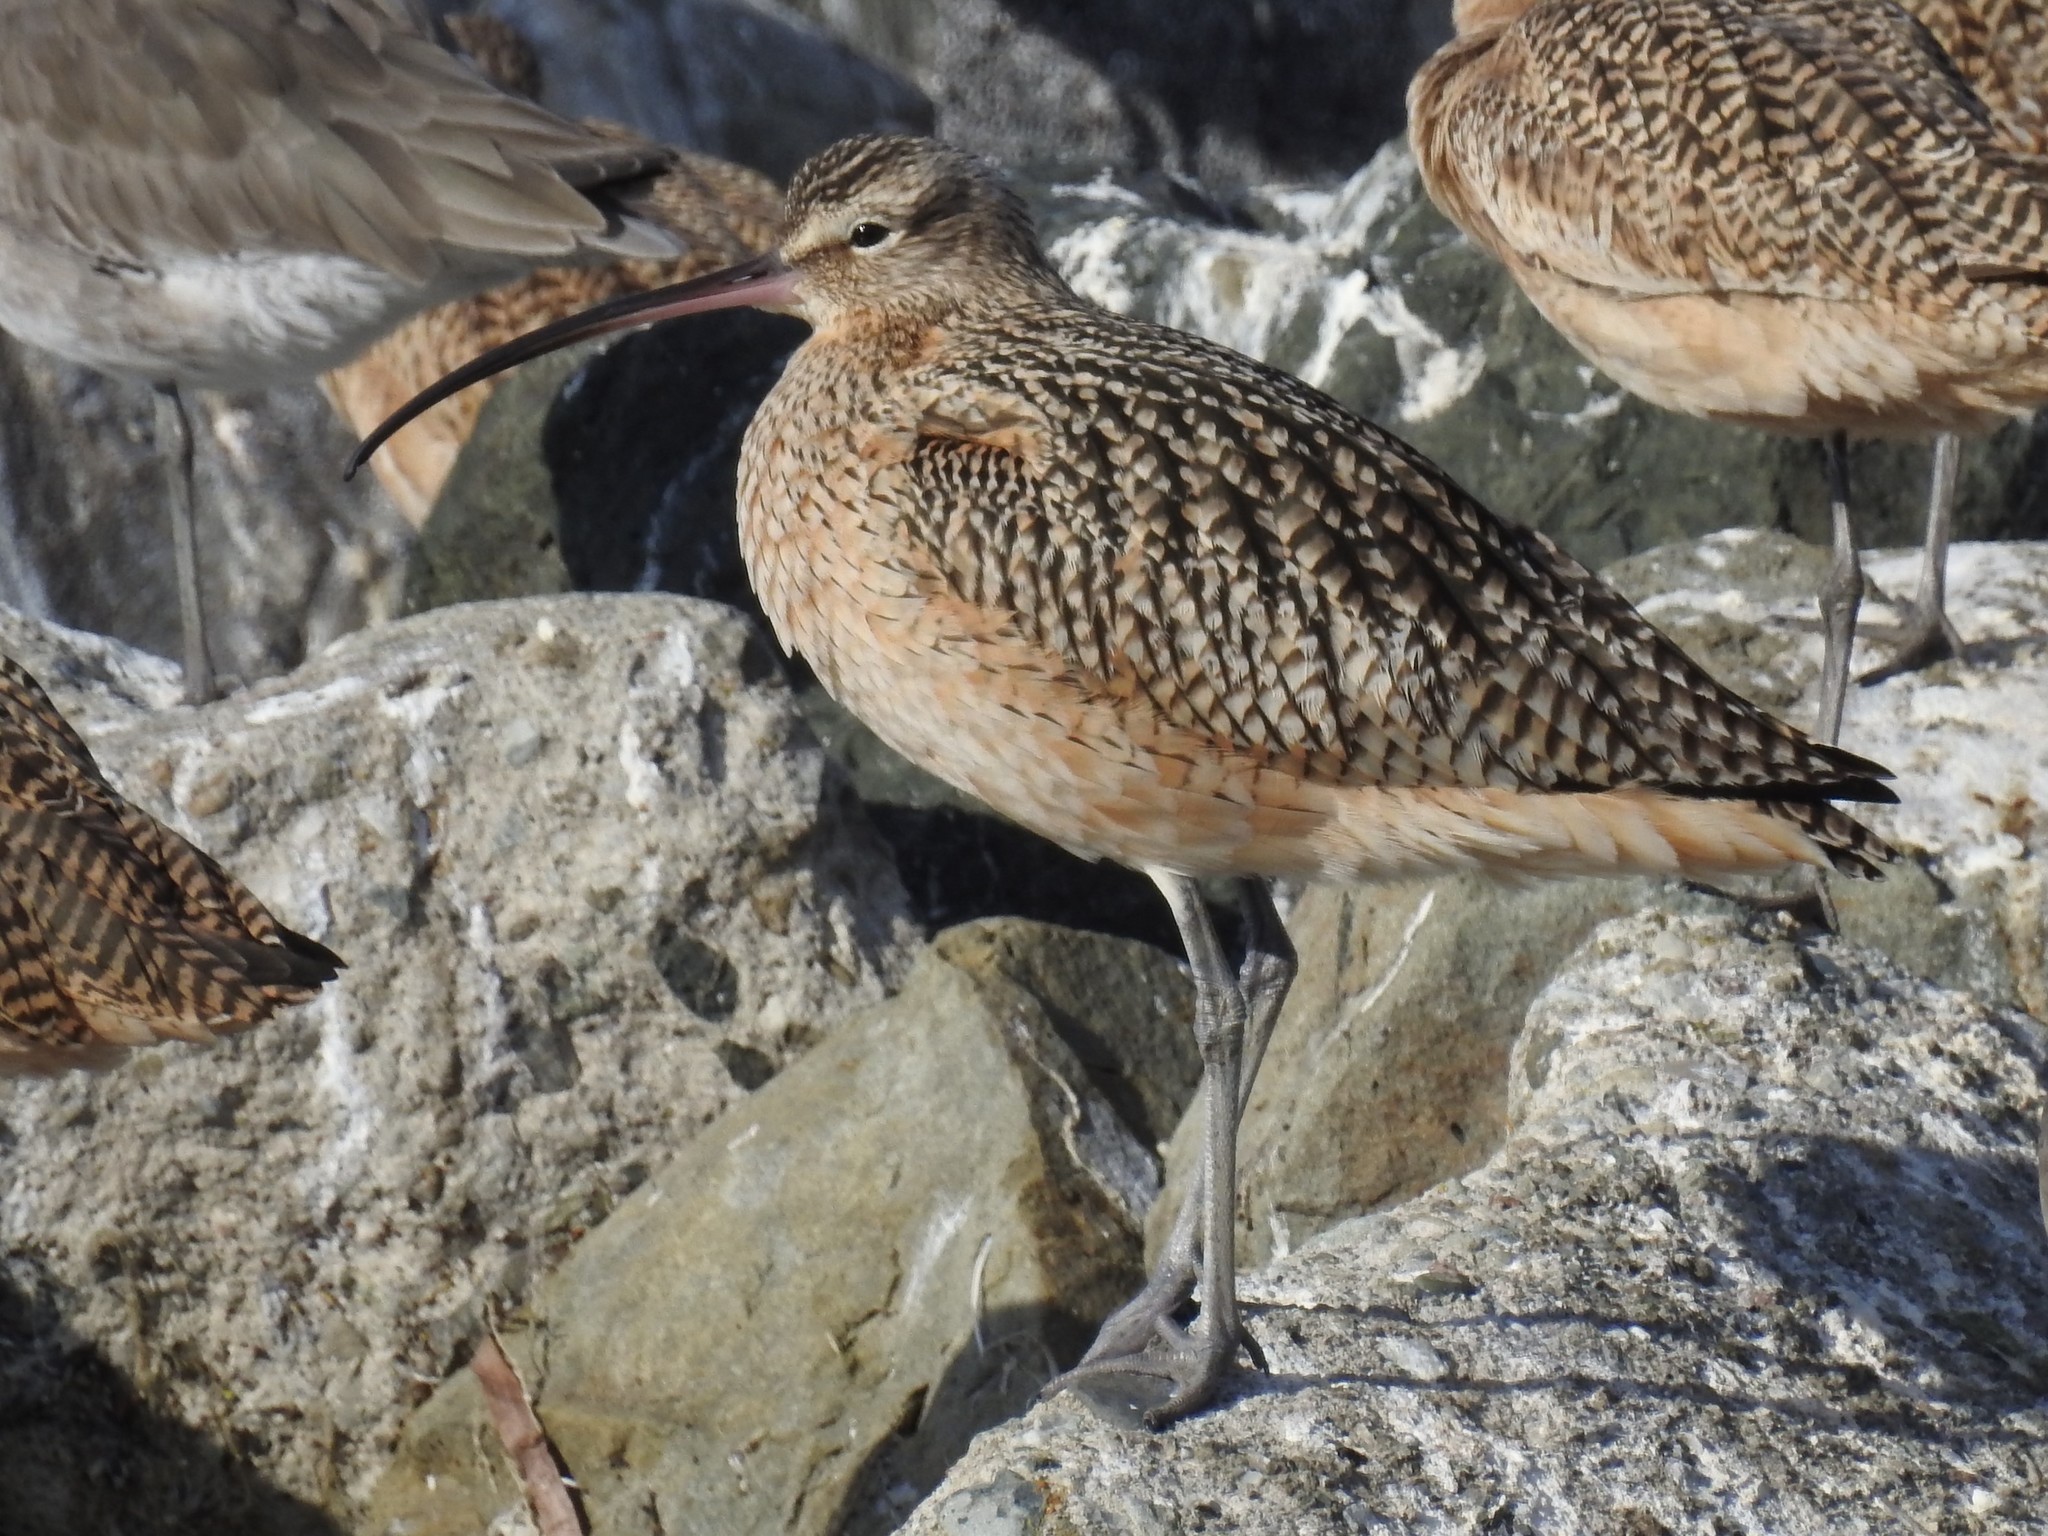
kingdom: Animalia
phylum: Chordata
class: Aves
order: Charadriiformes
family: Scolopacidae
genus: Numenius
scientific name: Numenius americanus
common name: Long-billed curlew
